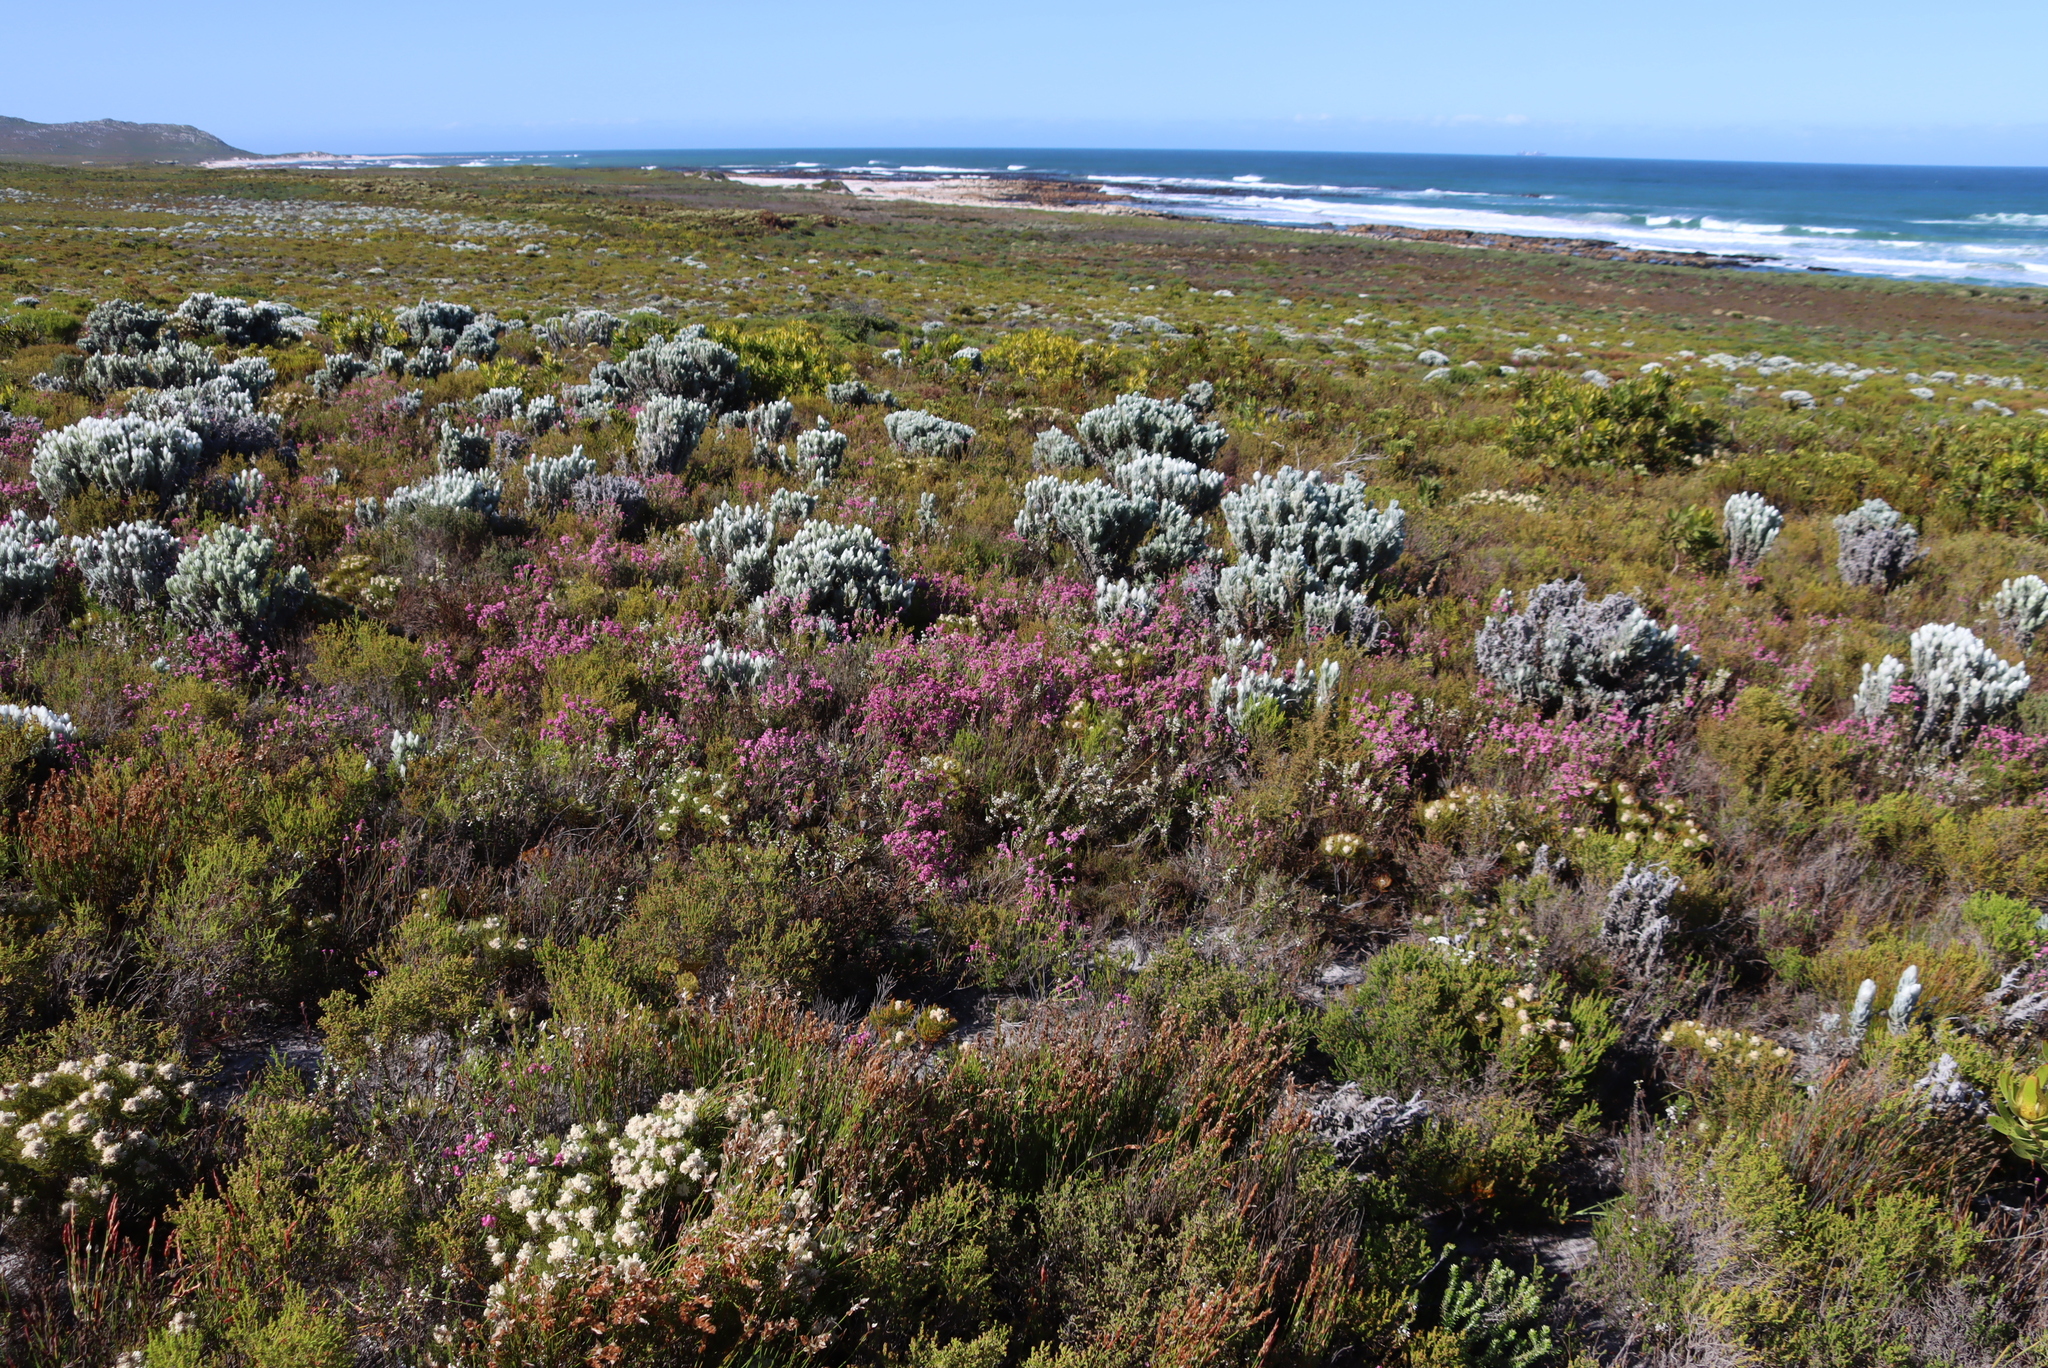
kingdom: Plantae
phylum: Tracheophyta
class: Magnoliopsida
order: Ericales
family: Ericaceae
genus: Erica
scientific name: Erica corifolia
